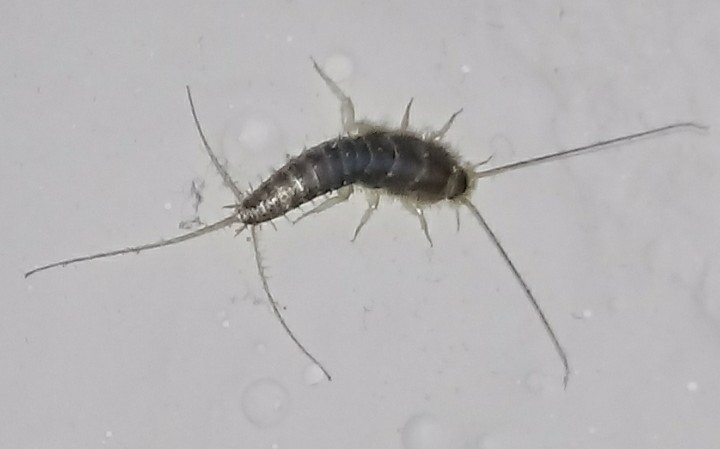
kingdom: Animalia
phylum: Arthropoda
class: Insecta
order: Zygentoma
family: Lepismatidae
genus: Ctenolepisma
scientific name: Ctenolepisma longicaudatum
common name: Silverfish
